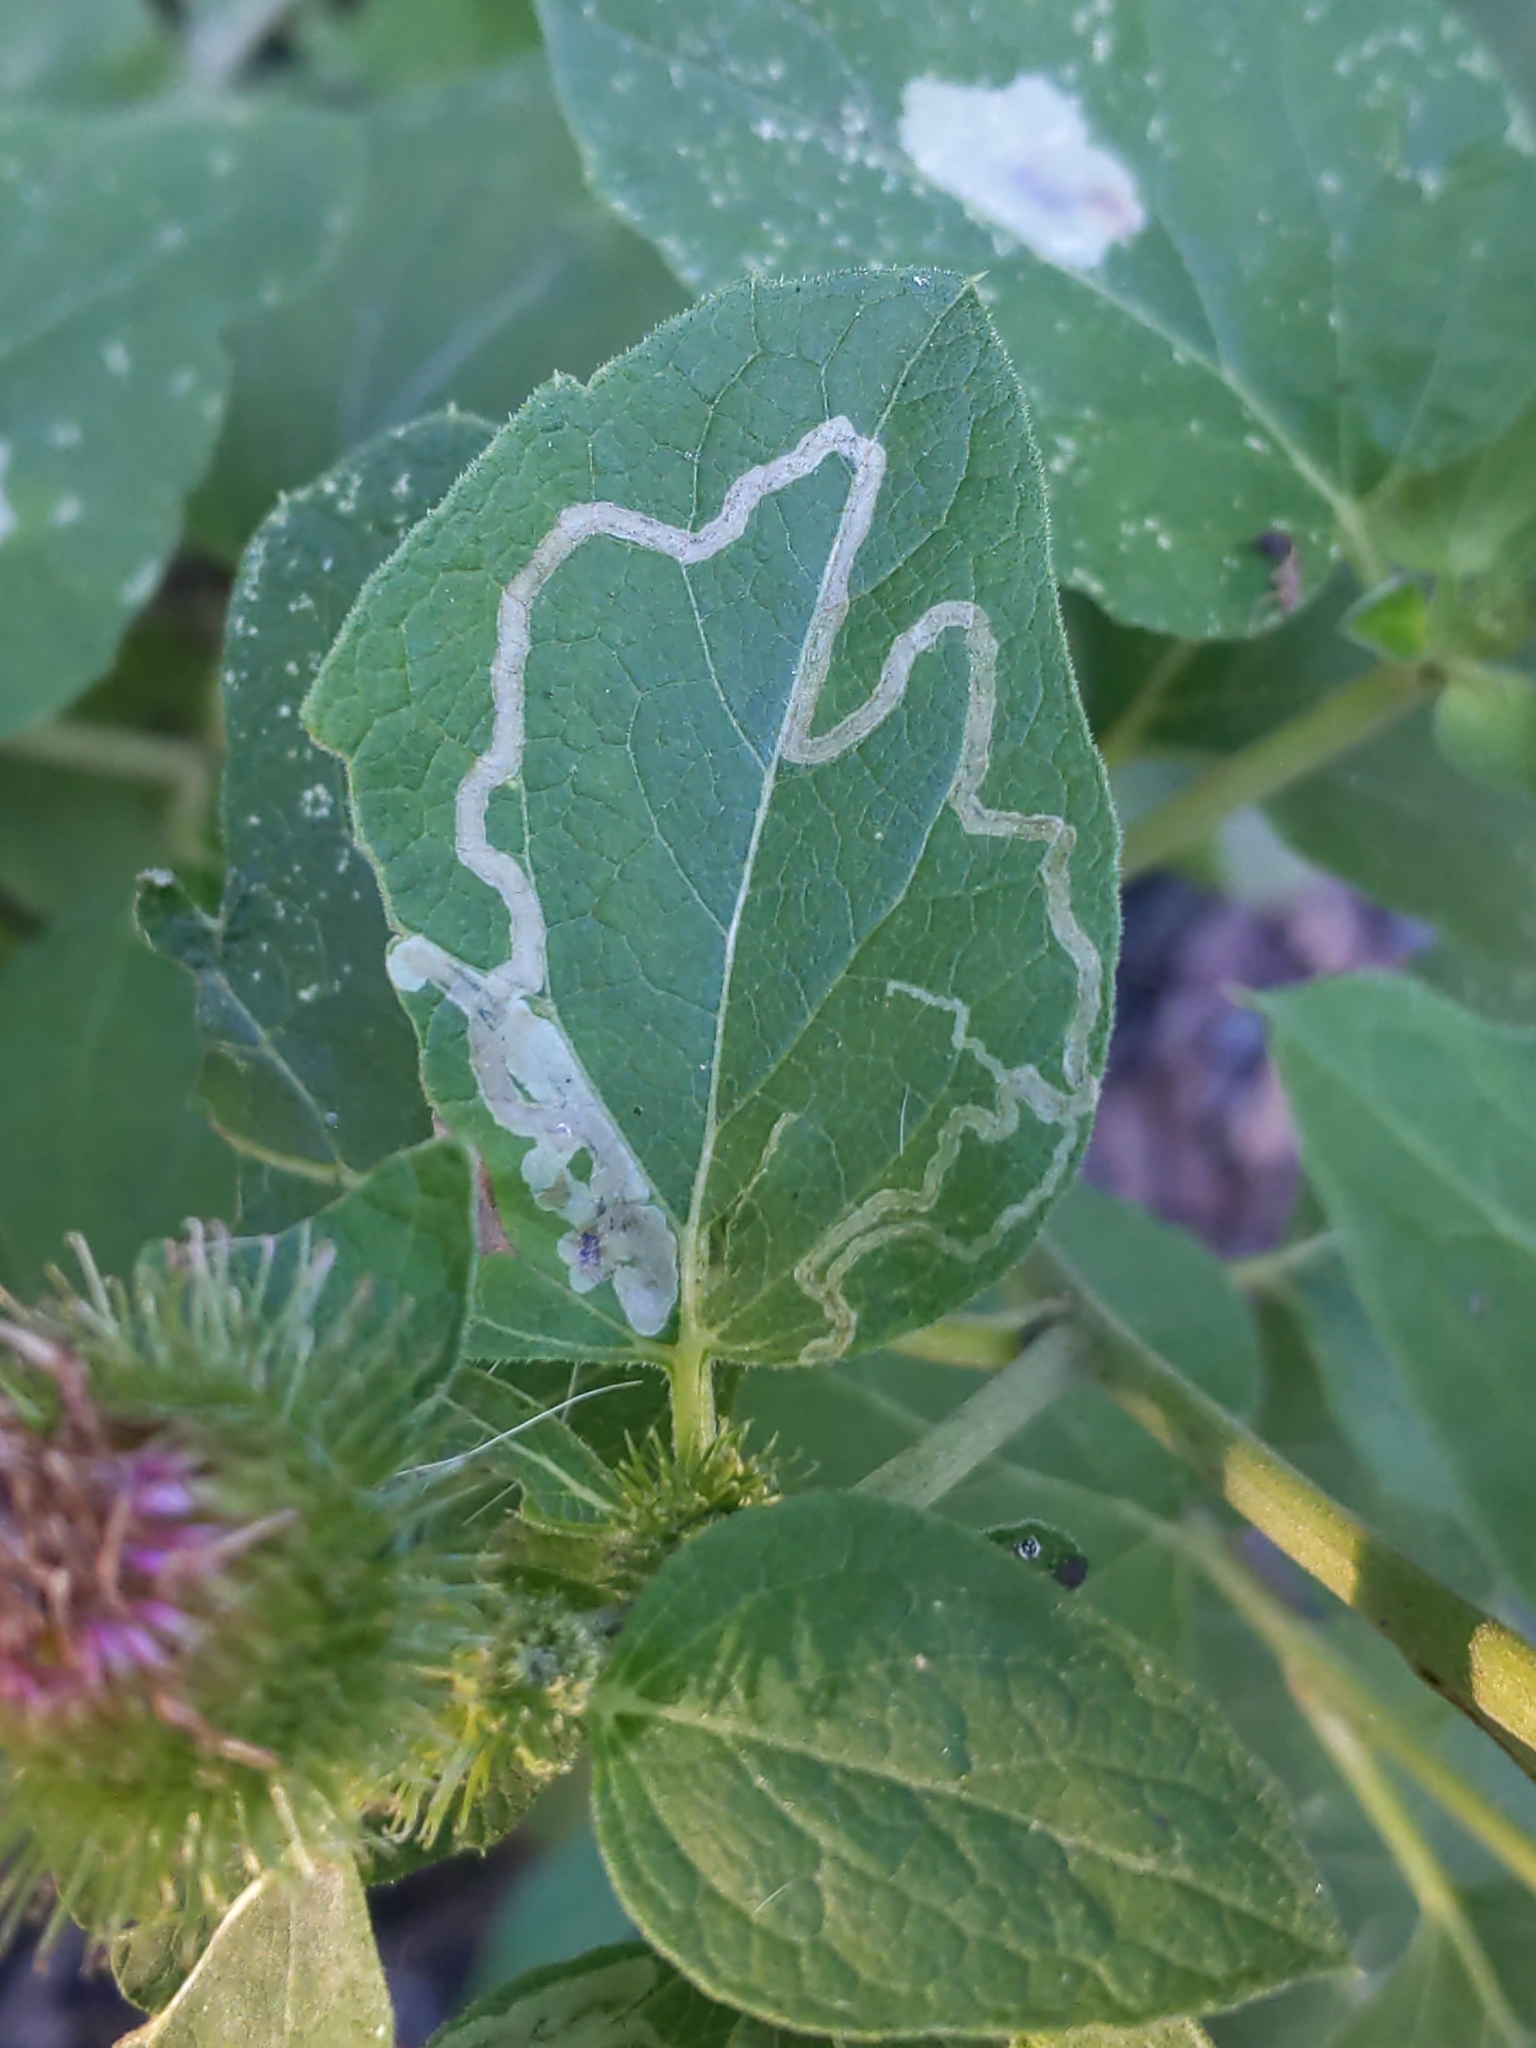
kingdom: Animalia
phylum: Arthropoda
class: Insecta
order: Diptera
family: Agromyzidae
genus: Liriomyza
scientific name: Liriomyza arctii
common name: Burdock leafminer
